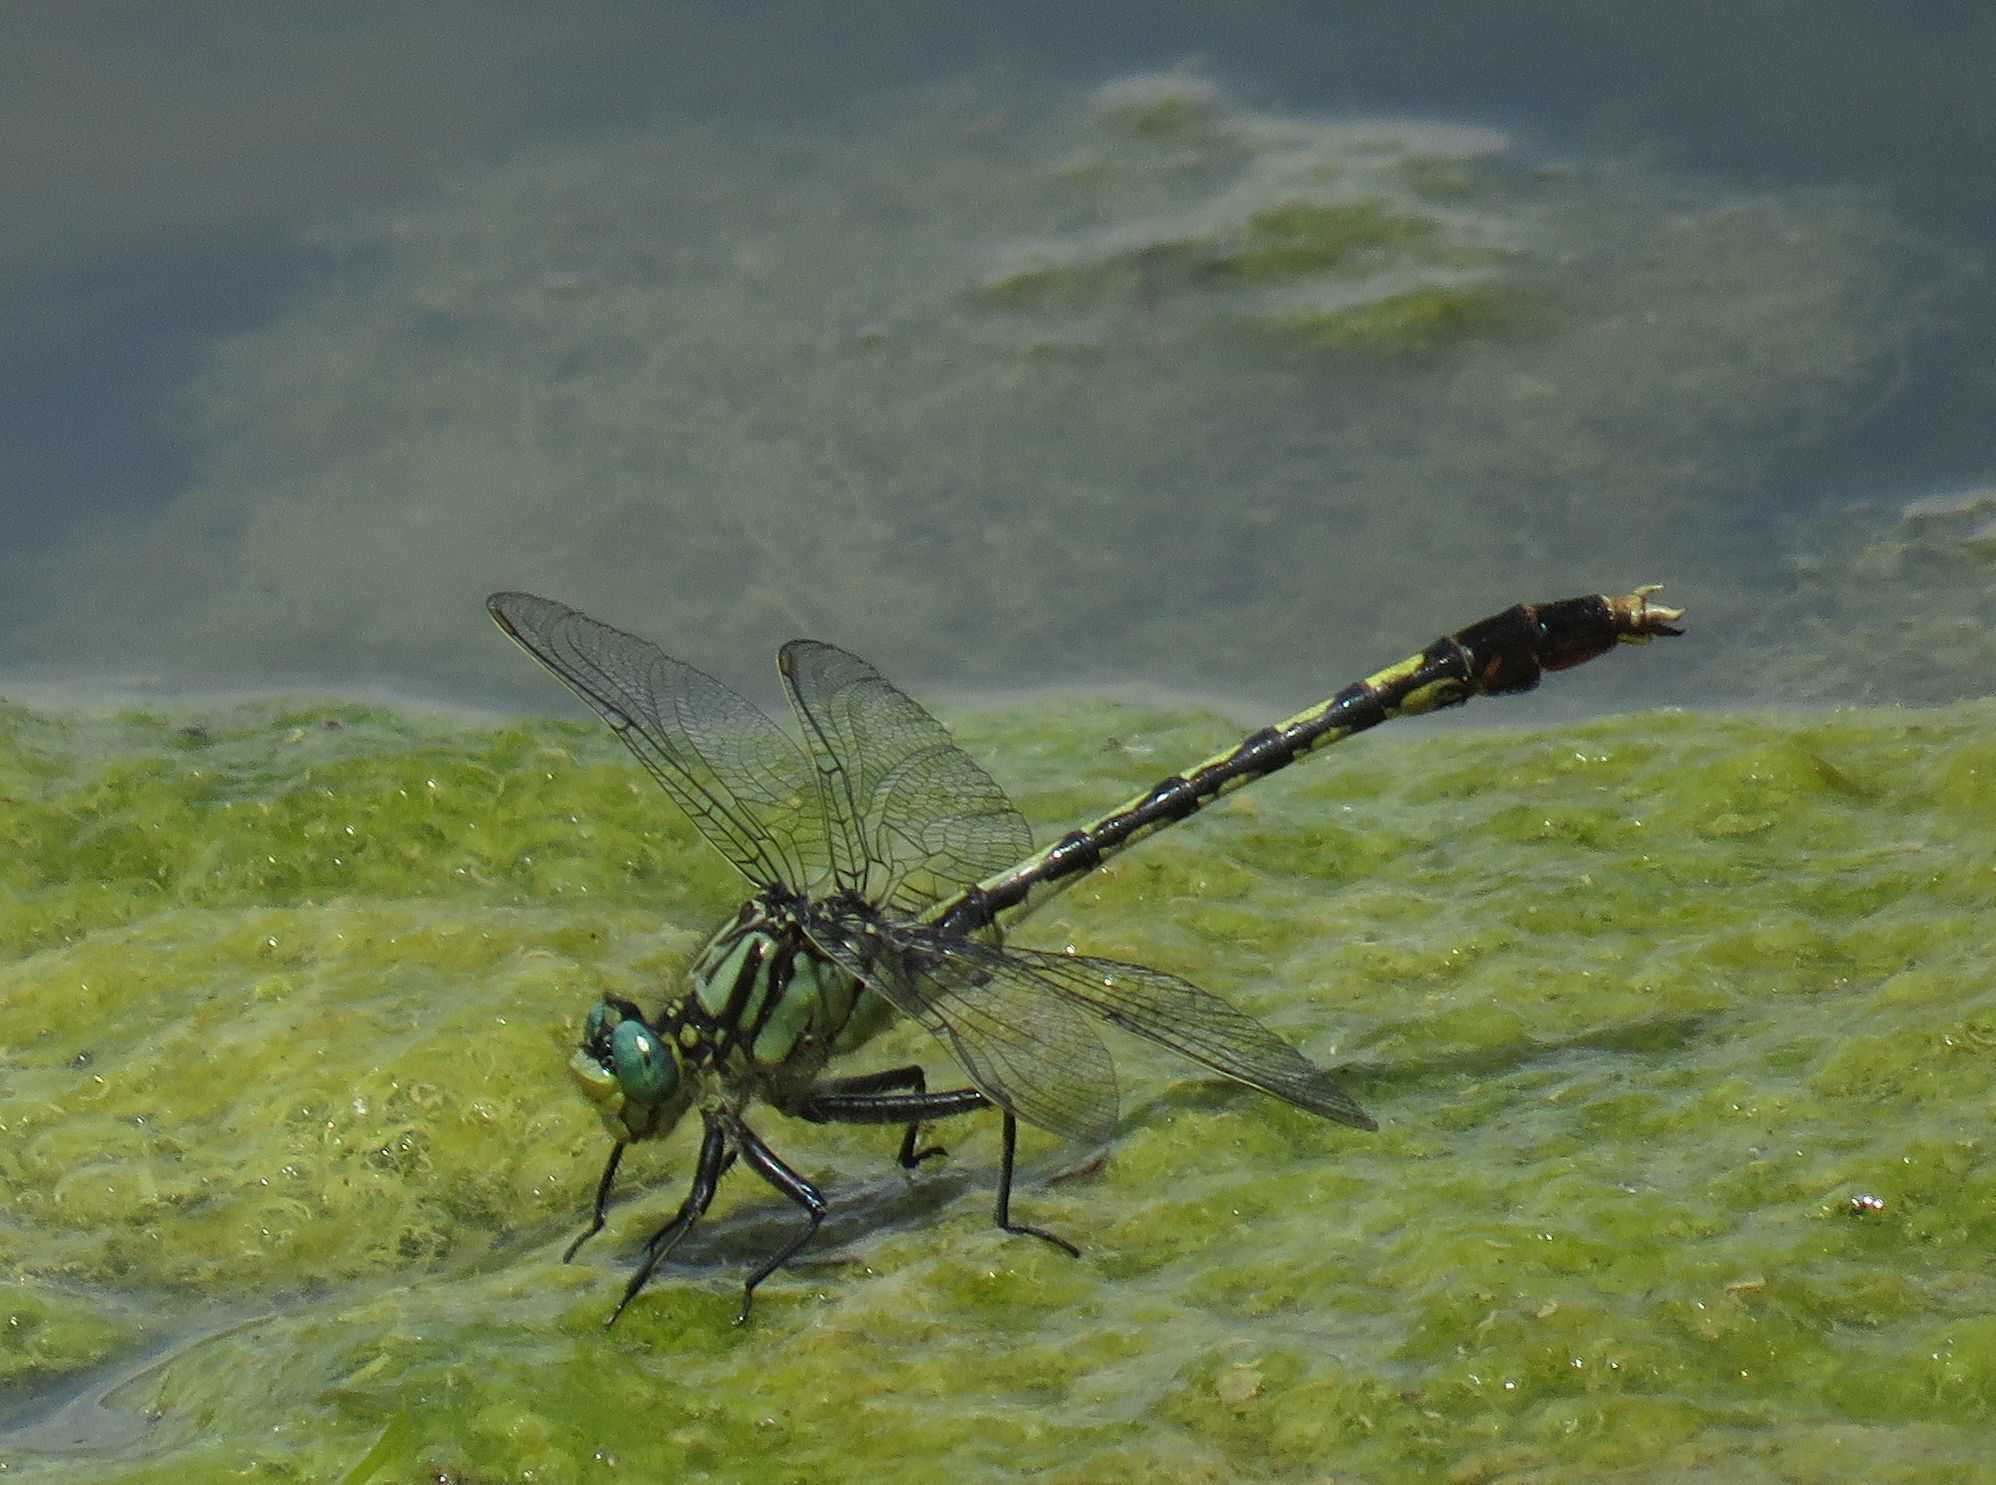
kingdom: Animalia
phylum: Arthropoda
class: Insecta
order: Odonata
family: Gomphidae
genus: Arigomphus
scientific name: Arigomphus villosipes
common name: Unicorn clubtail
